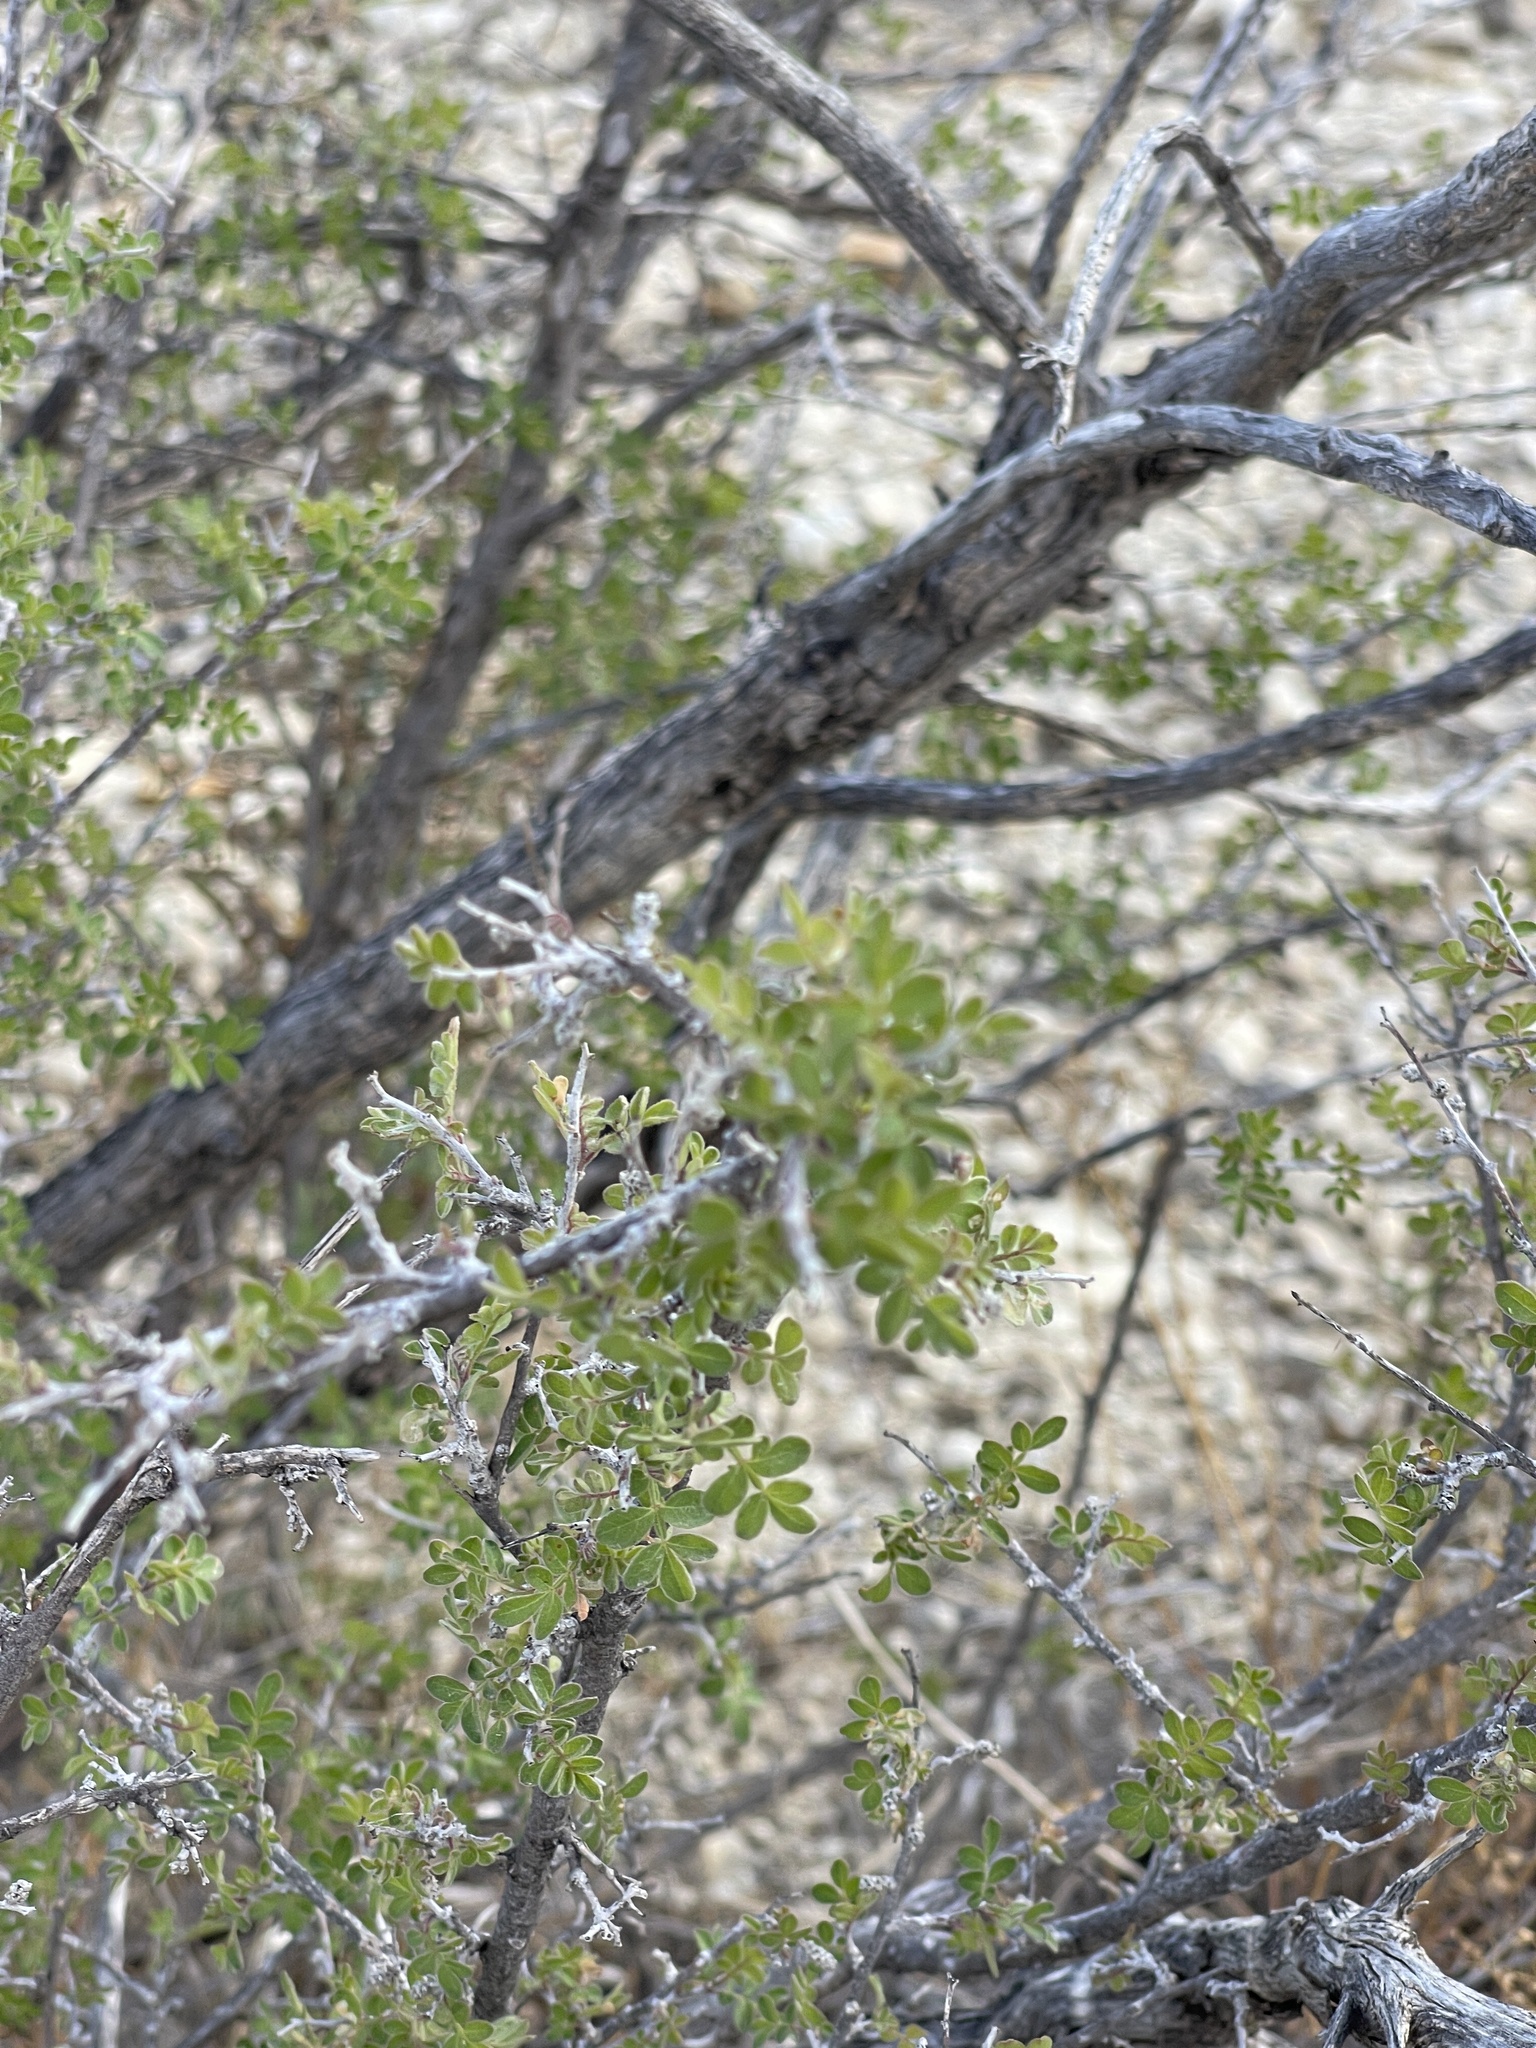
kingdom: Plantae
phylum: Tracheophyta
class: Magnoliopsida
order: Sapindales
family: Anacardiaceae
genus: Rhus
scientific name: Rhus microphylla
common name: Desert sumac
